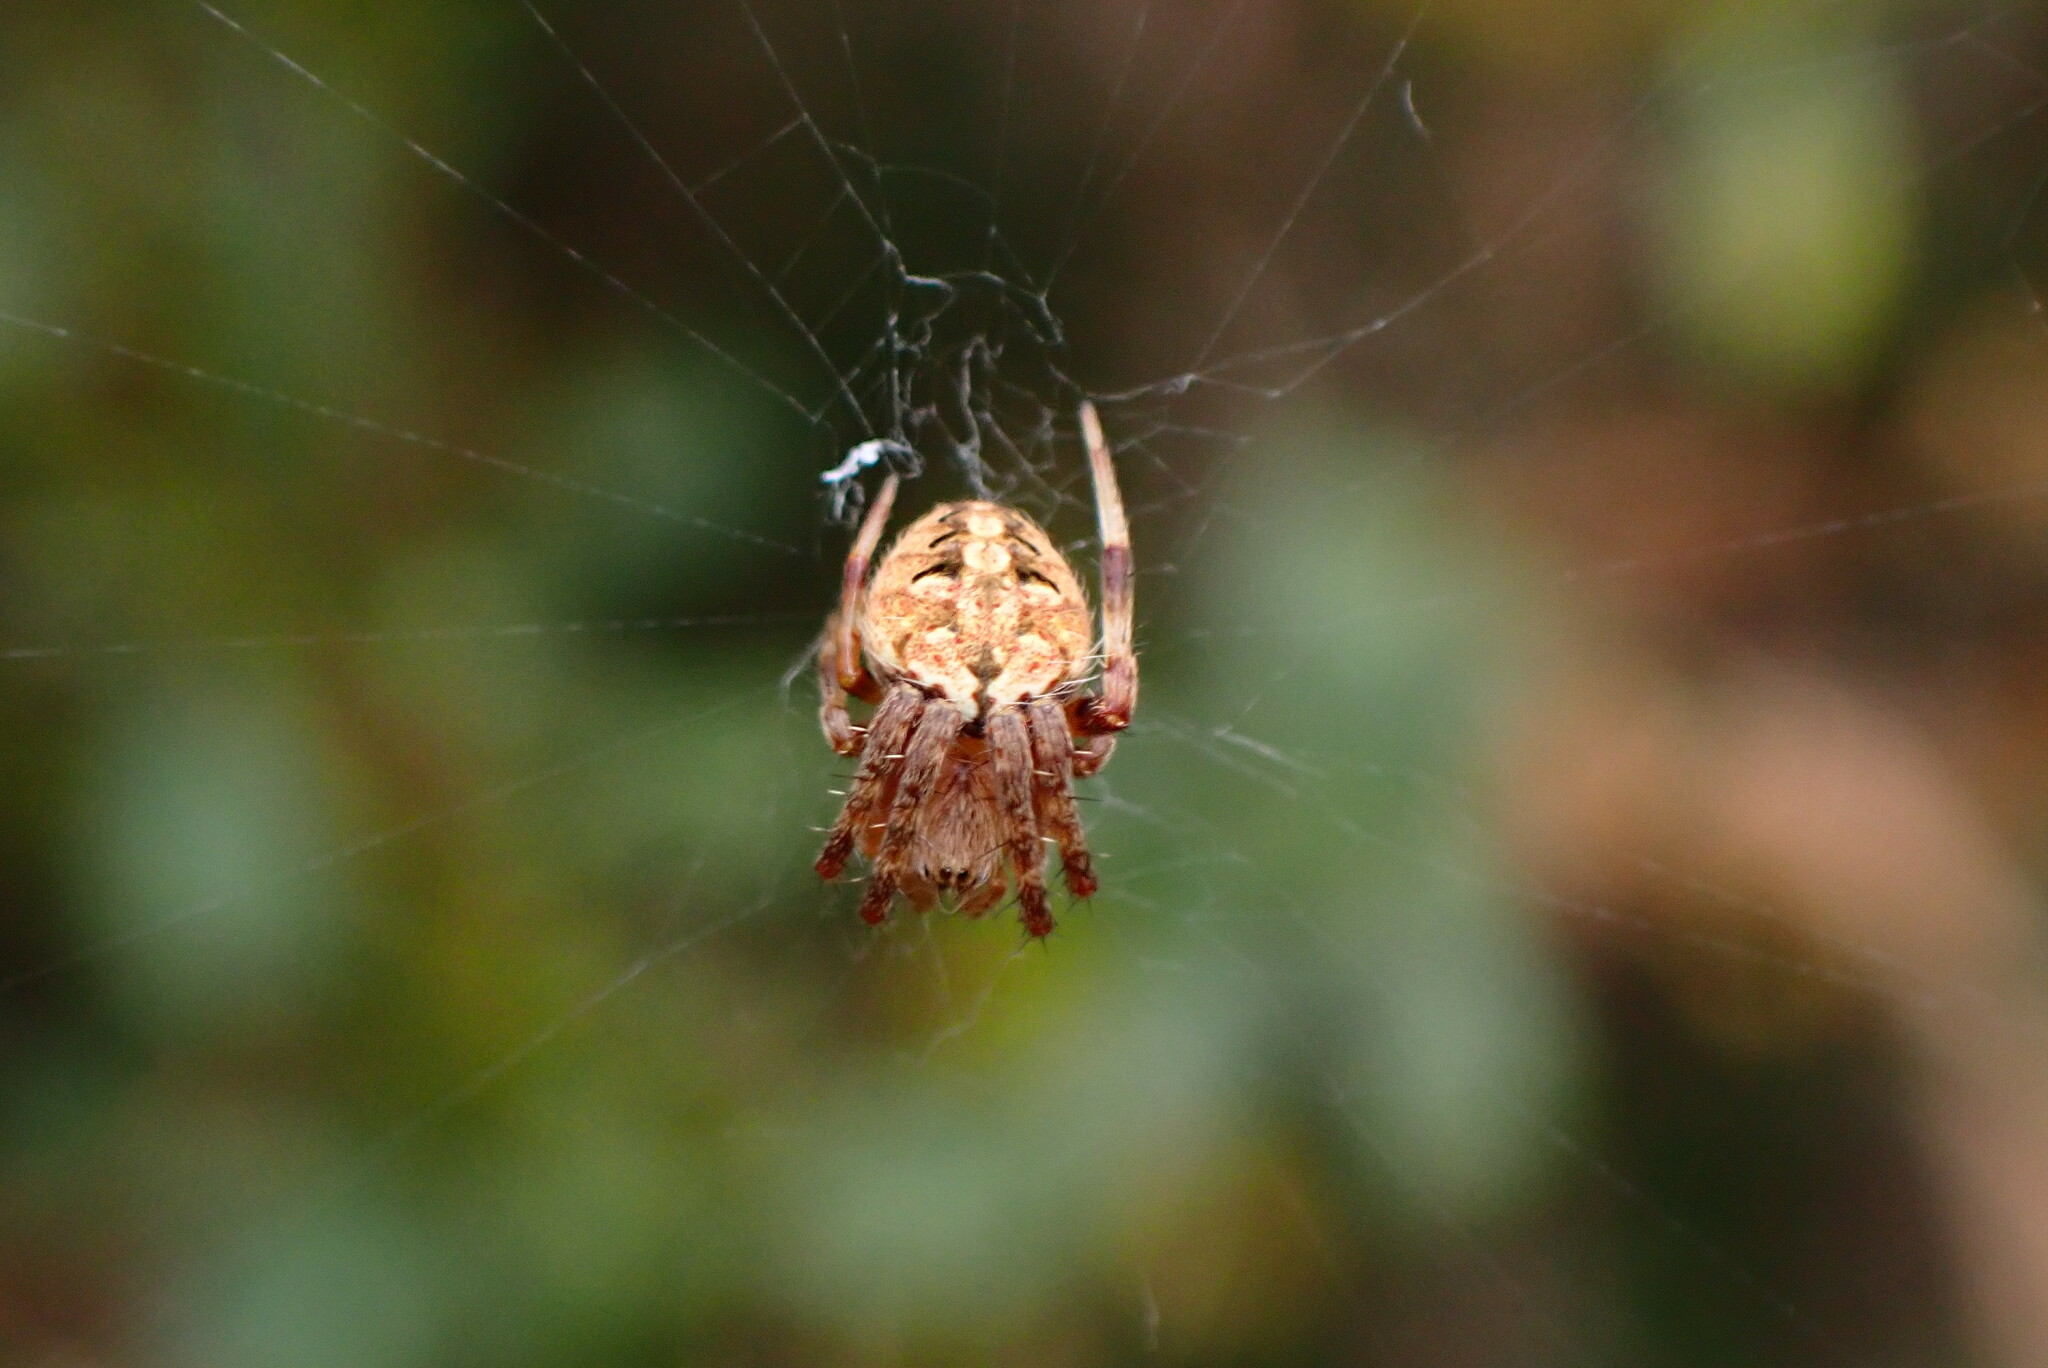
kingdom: Animalia
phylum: Arthropoda
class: Arachnida
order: Araneae
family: Araneidae
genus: Neoscona
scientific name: Neoscona arabesca
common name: Orb weavers
